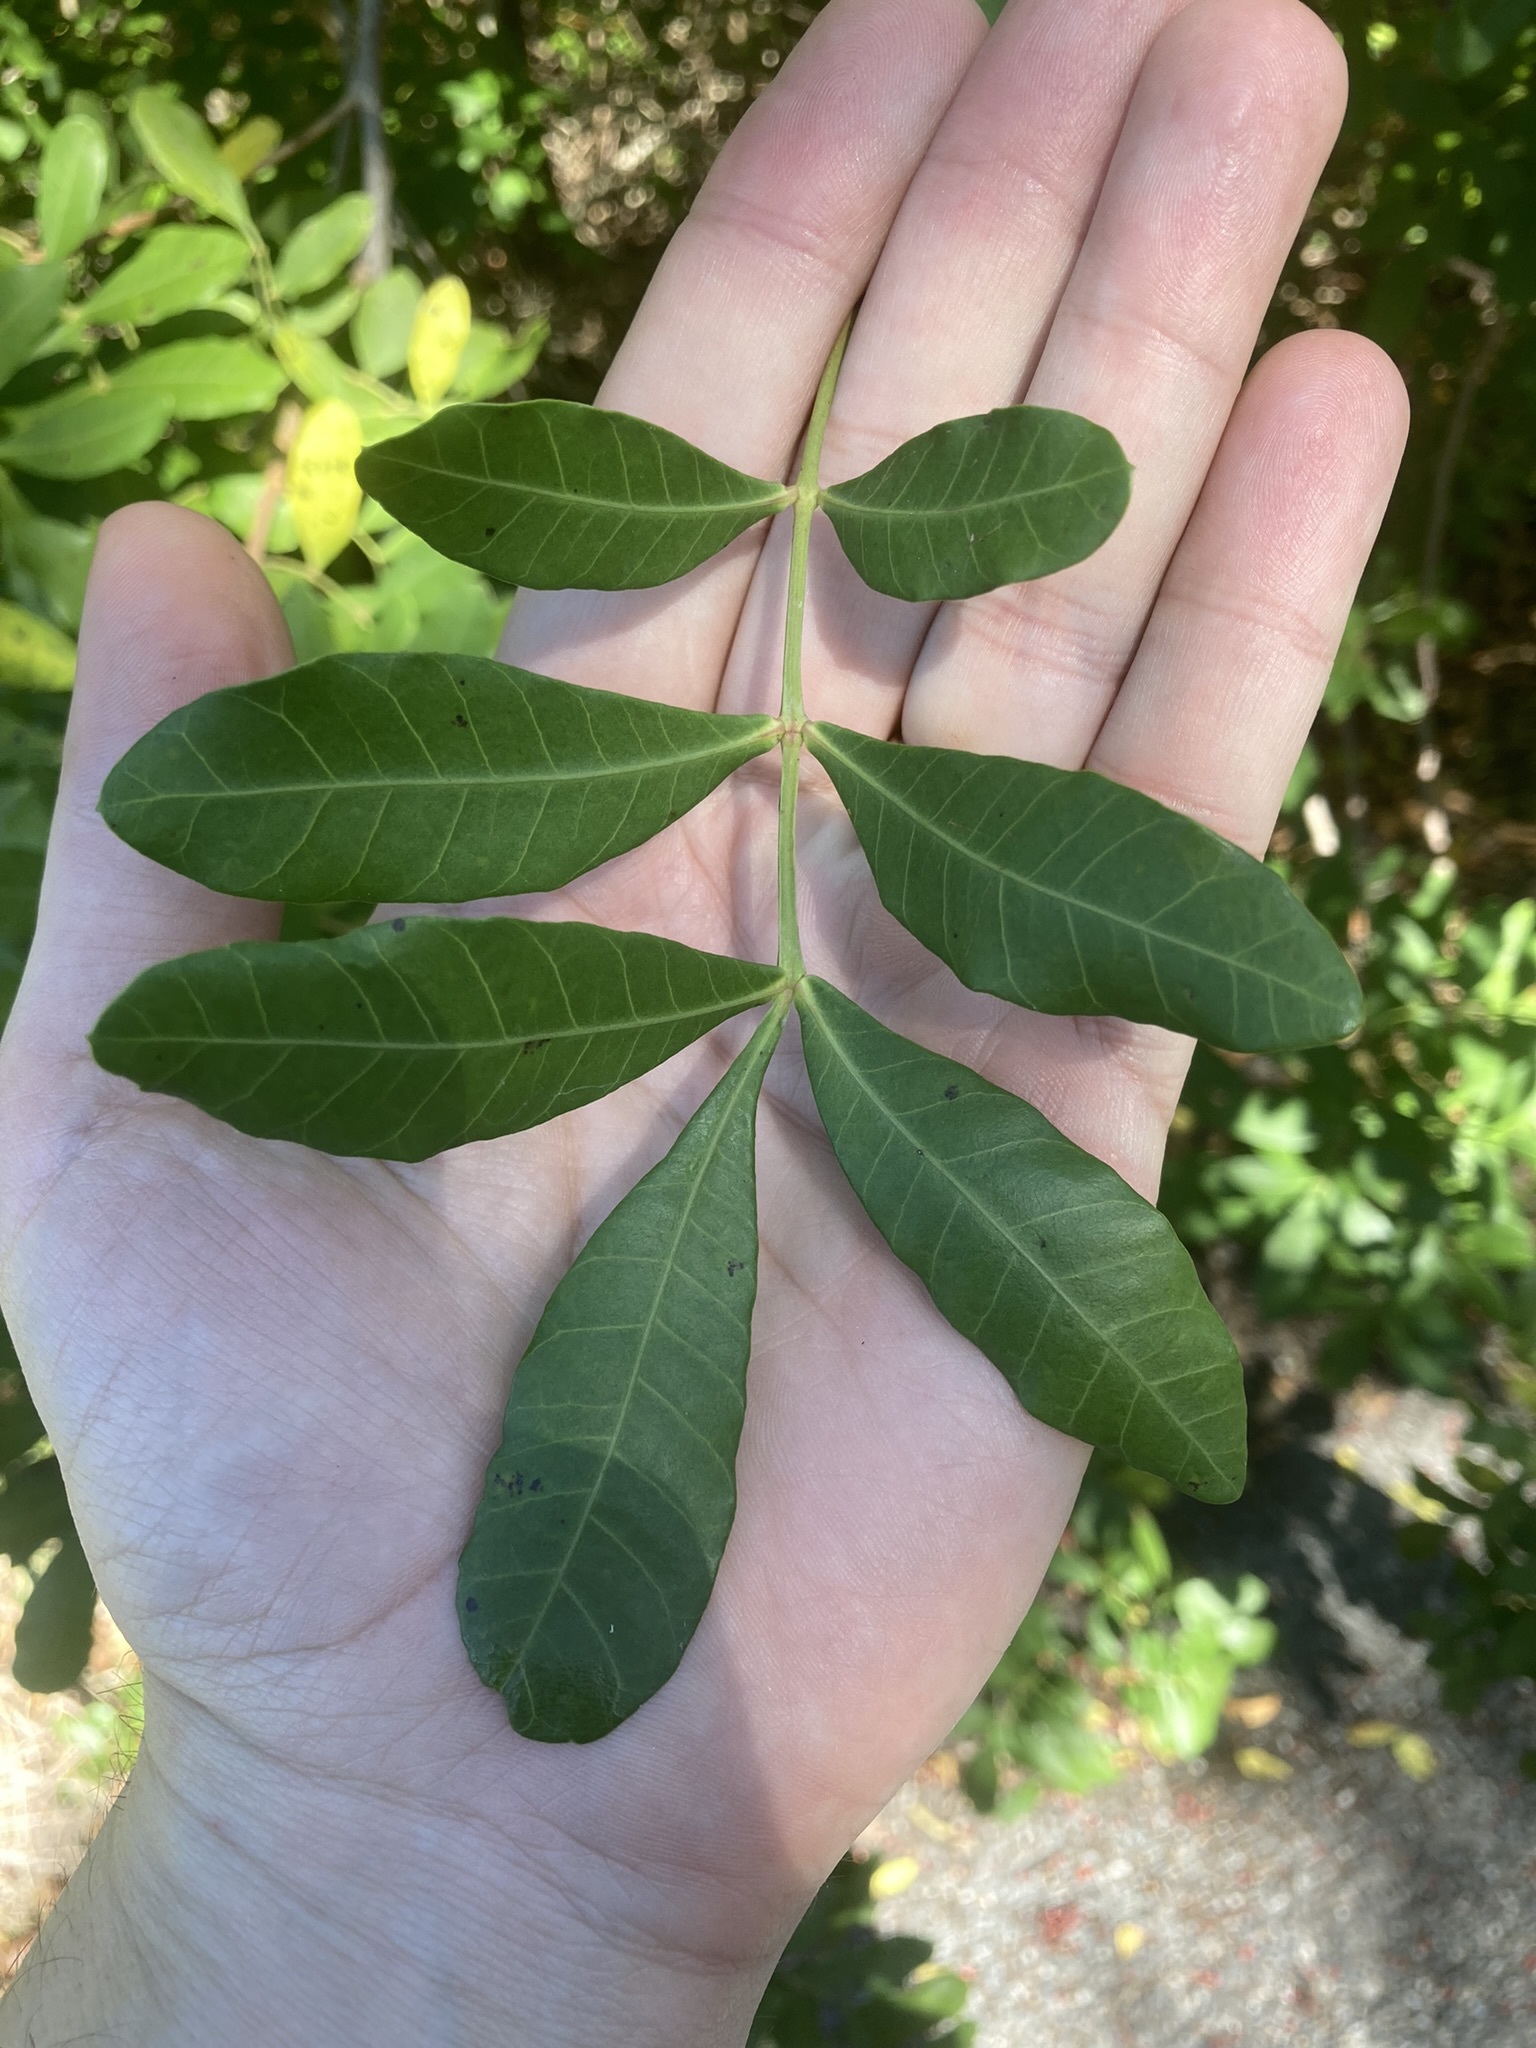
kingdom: Plantae
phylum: Tracheophyta
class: Magnoliopsida
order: Sapindales
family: Anacardiaceae
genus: Schinus
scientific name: Schinus terebinthifolia
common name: Brazilian peppertree
